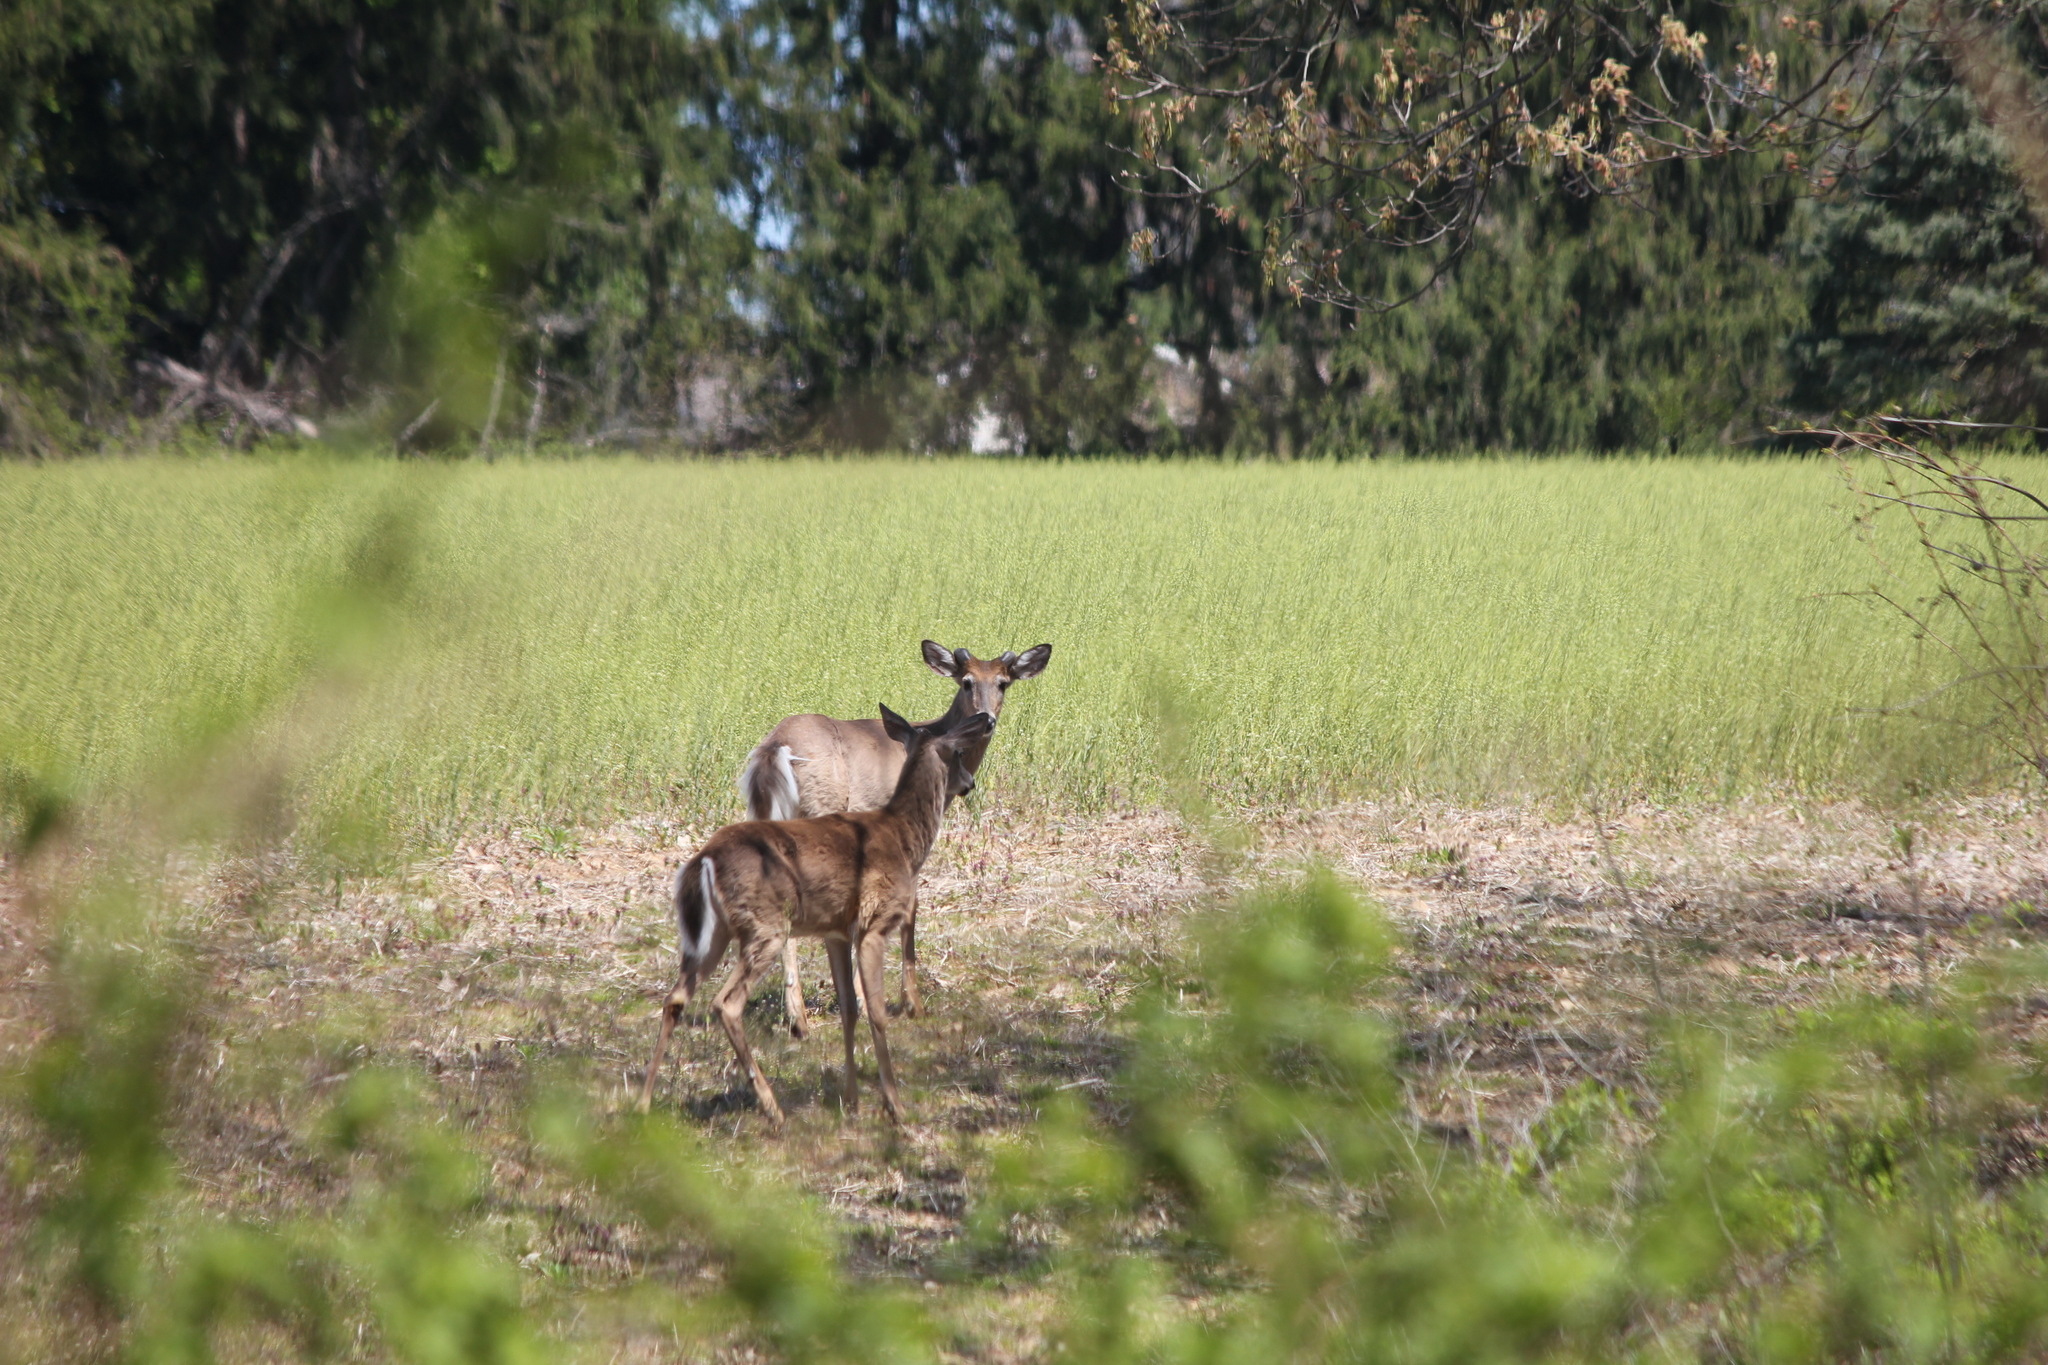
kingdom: Animalia
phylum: Chordata
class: Mammalia
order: Artiodactyla
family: Cervidae
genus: Odocoileus
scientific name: Odocoileus virginianus
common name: White-tailed deer
